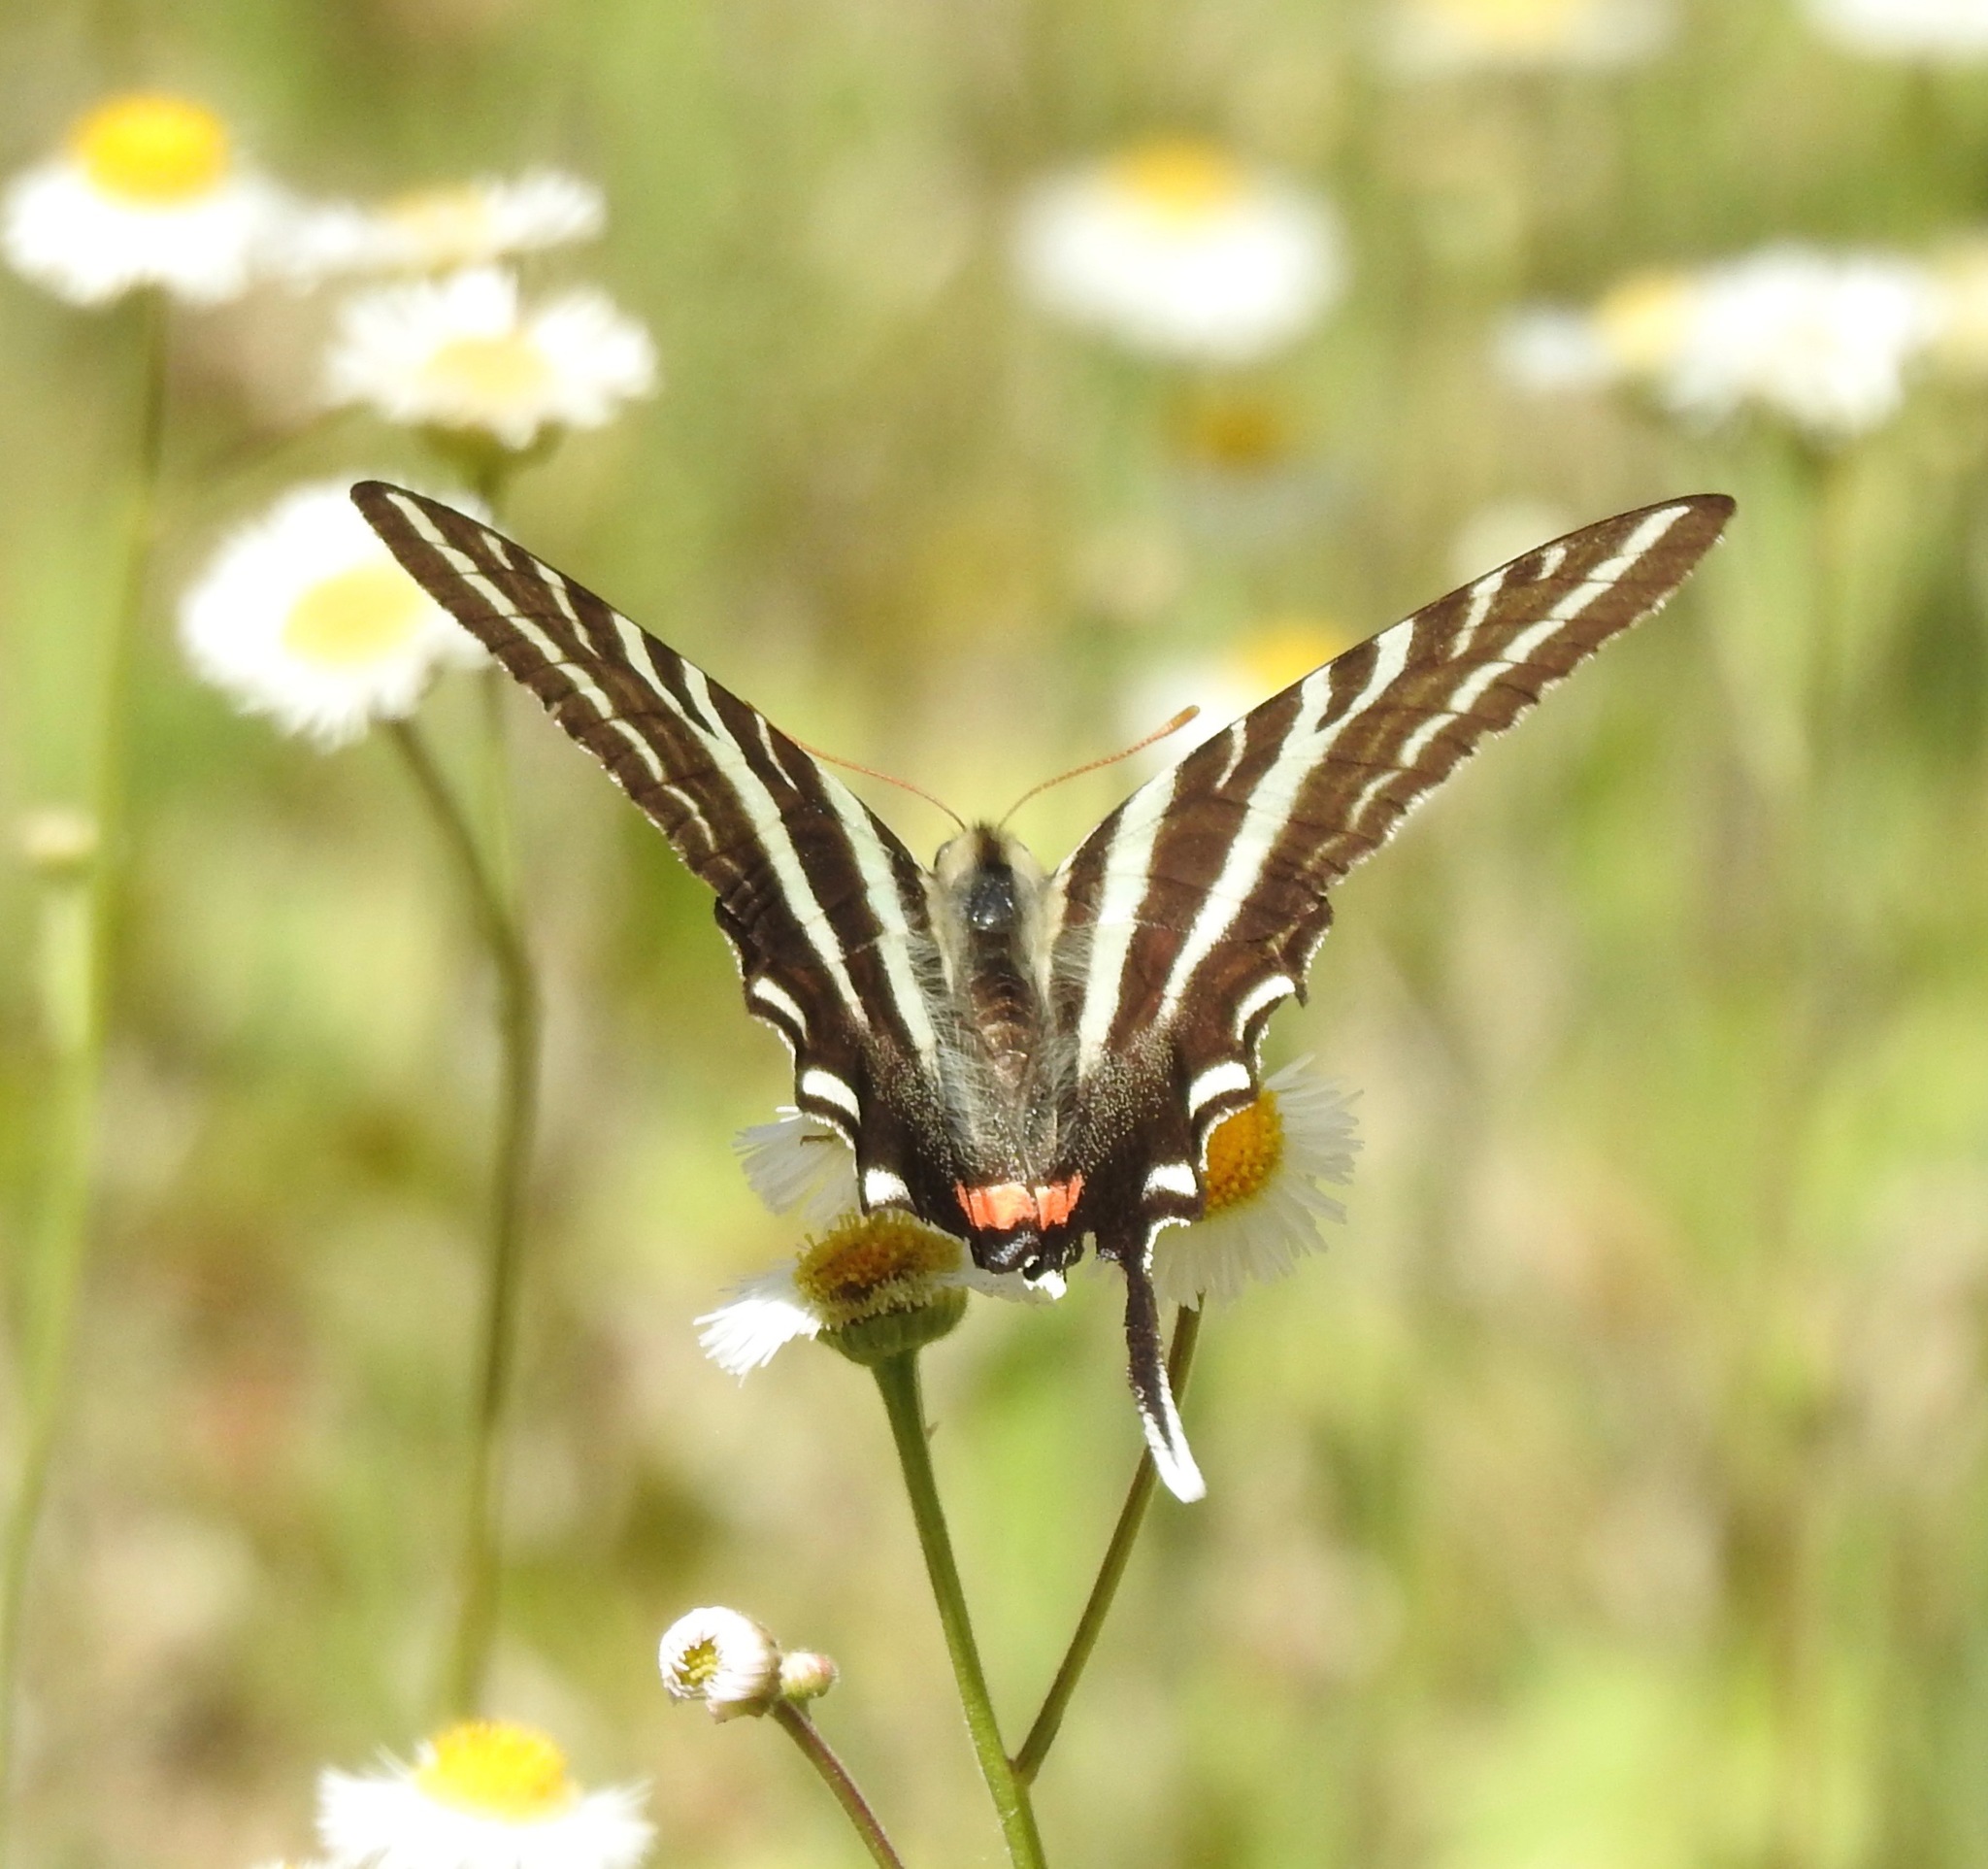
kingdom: Animalia
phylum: Arthropoda
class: Insecta
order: Lepidoptera
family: Papilionidae
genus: Protographium
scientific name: Protographium marcellus
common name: Zebra swallowtail
